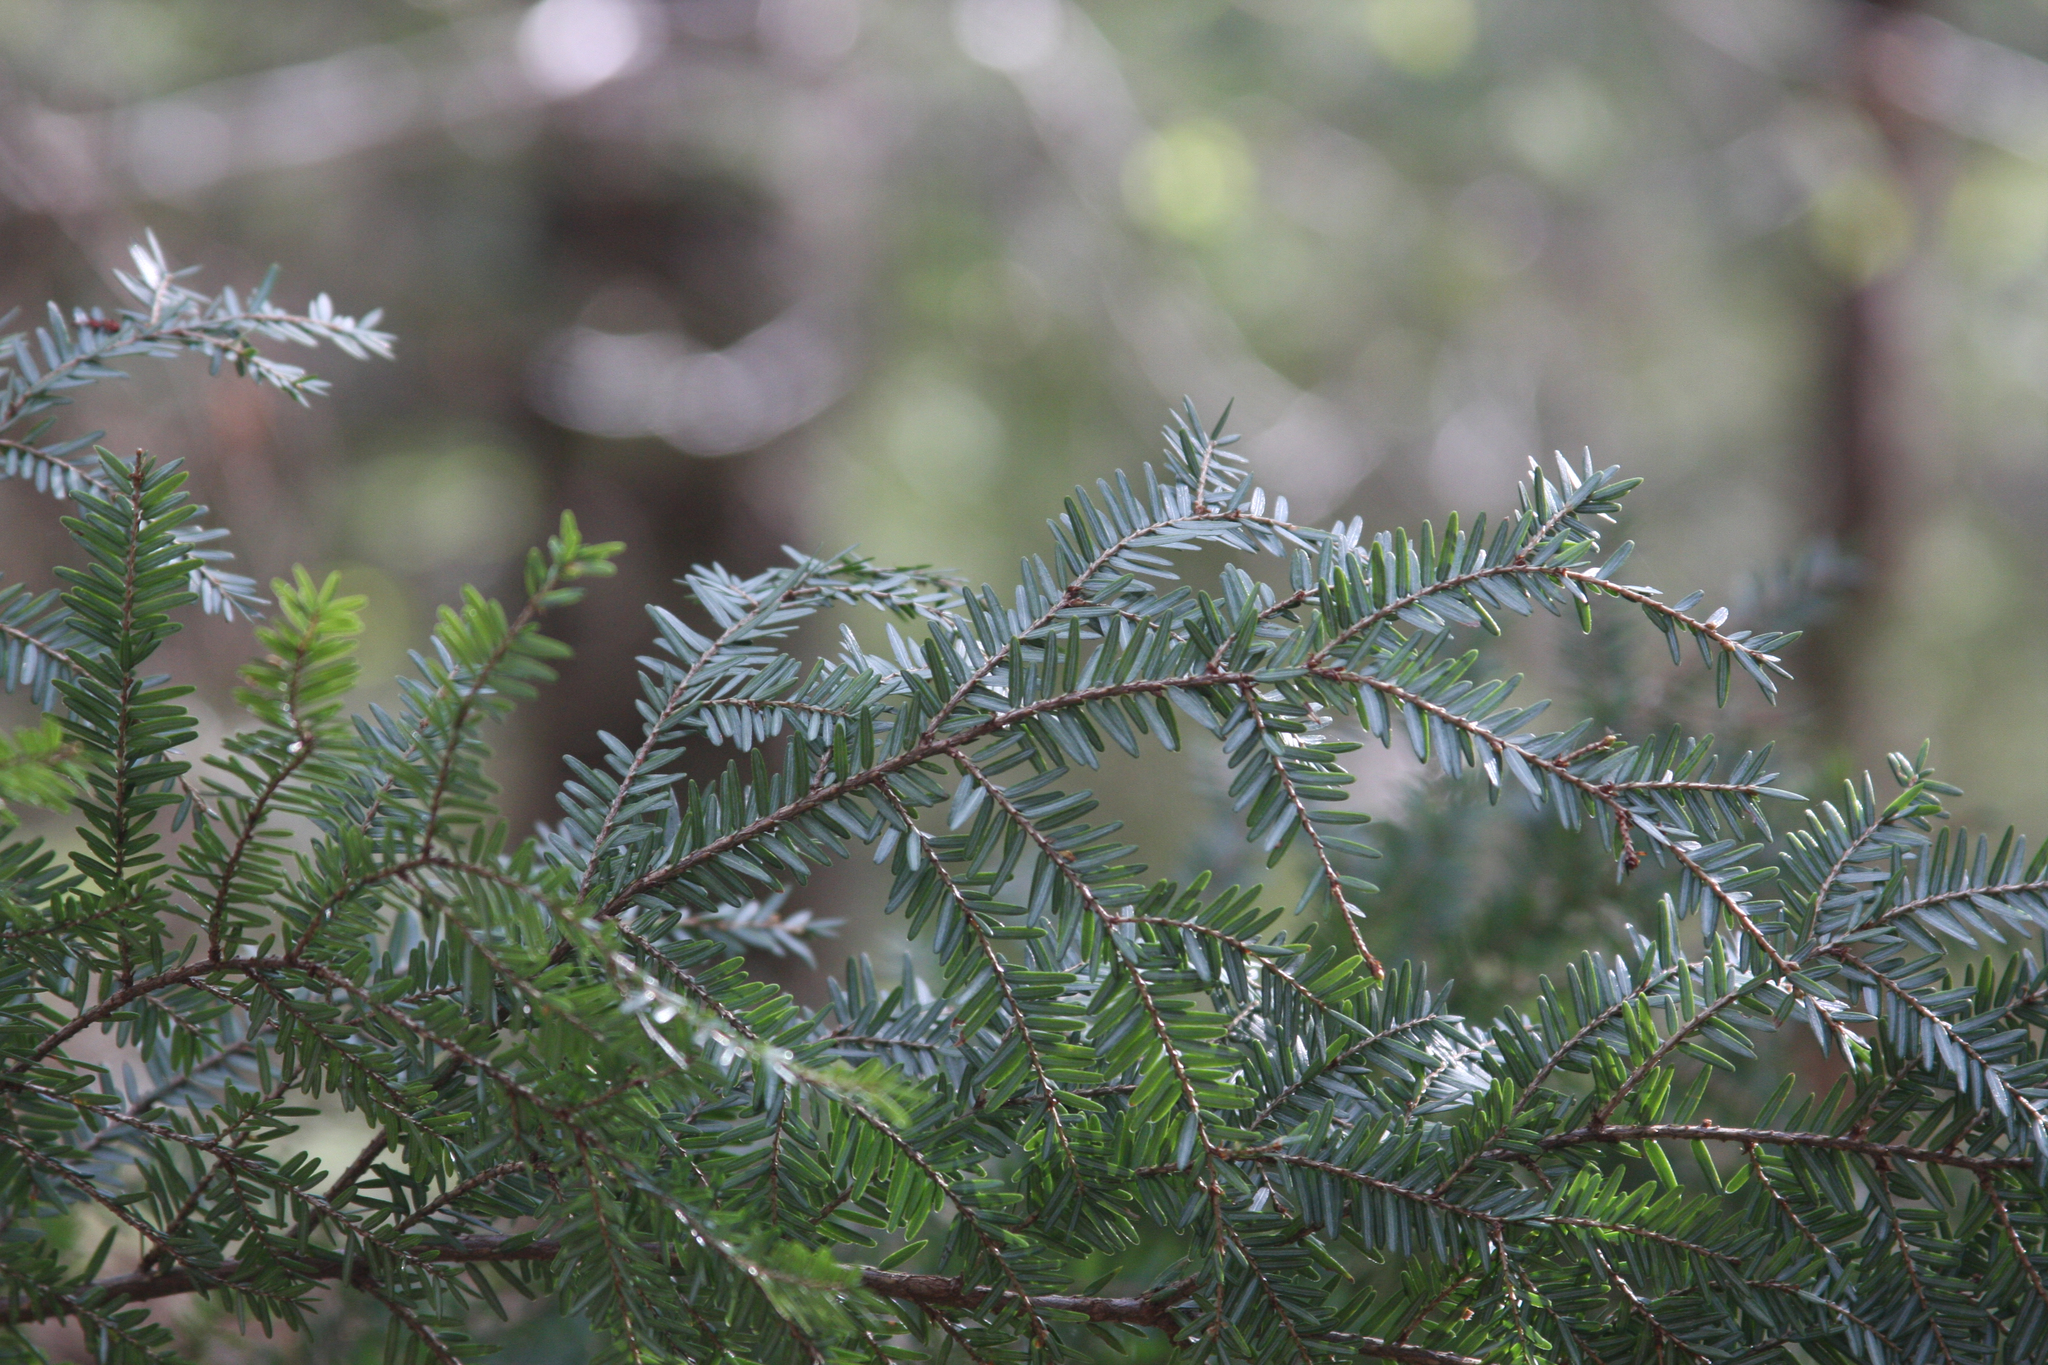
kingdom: Plantae
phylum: Tracheophyta
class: Pinopsida
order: Pinales
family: Pinaceae
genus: Tsuga
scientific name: Tsuga canadensis
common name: Eastern hemlock
